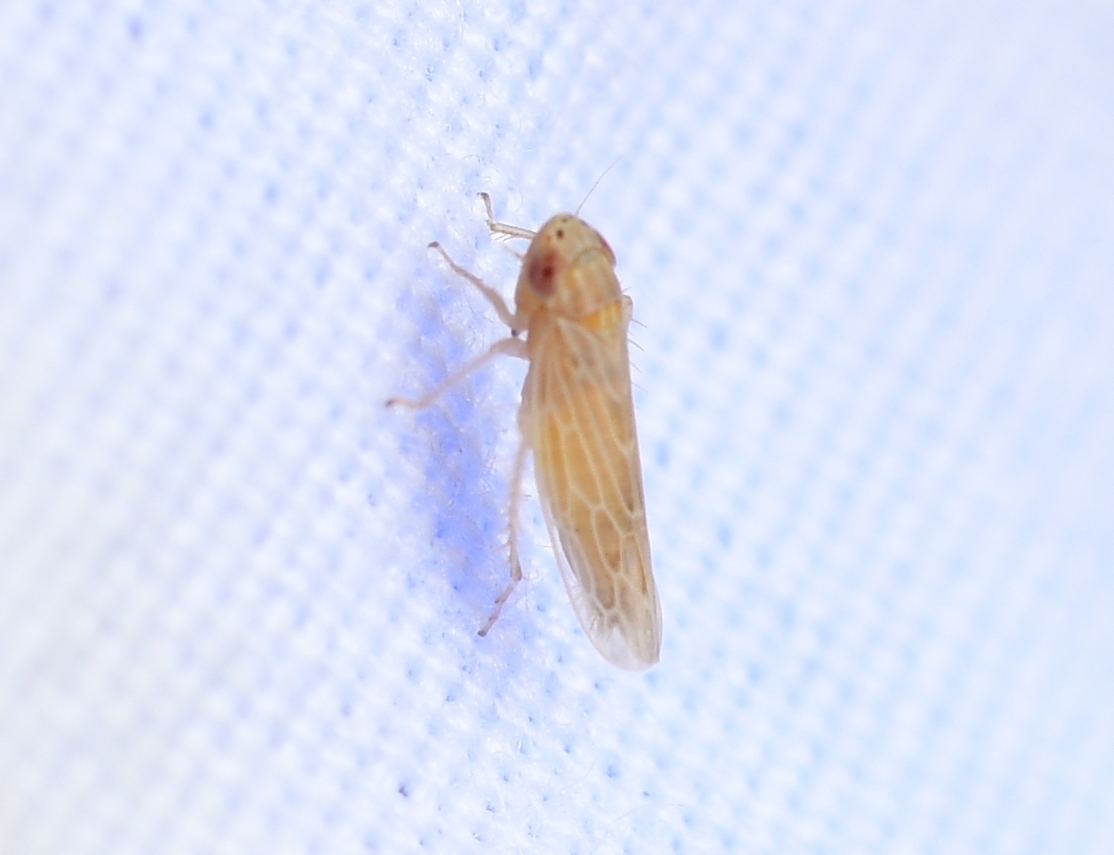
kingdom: Animalia
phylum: Arthropoda
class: Insecta
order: Hemiptera
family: Cicadellidae
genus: Graminella
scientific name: Graminella sonora
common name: Lesser lawn leafhopper
